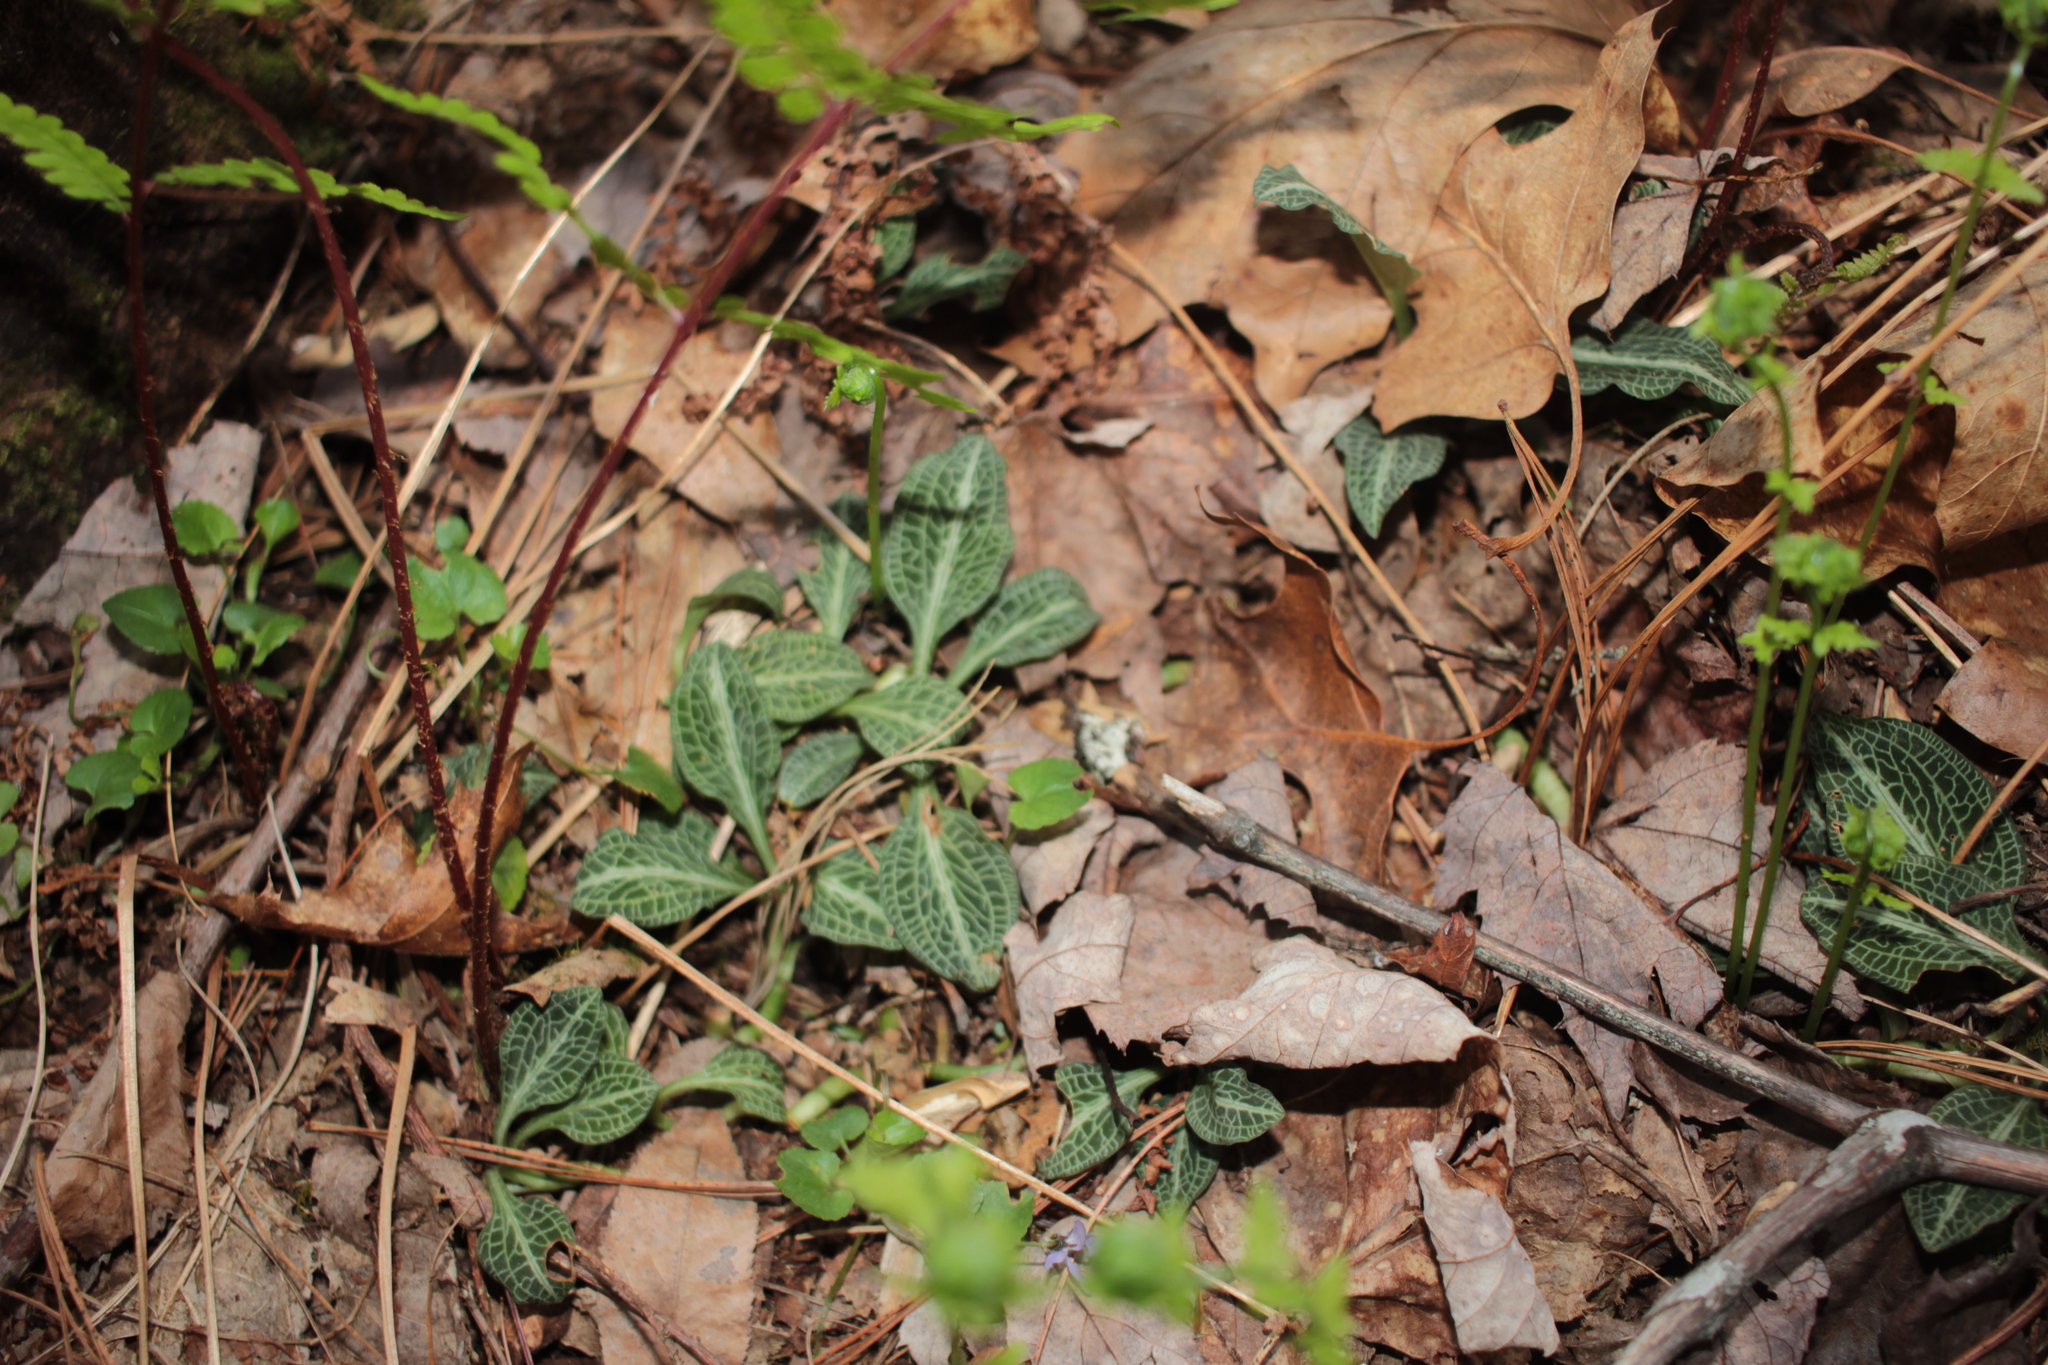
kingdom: Plantae
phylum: Tracheophyta
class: Liliopsida
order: Asparagales
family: Orchidaceae
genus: Goodyera
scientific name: Goodyera pubescens
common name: Downy rattlesnake-plantain
